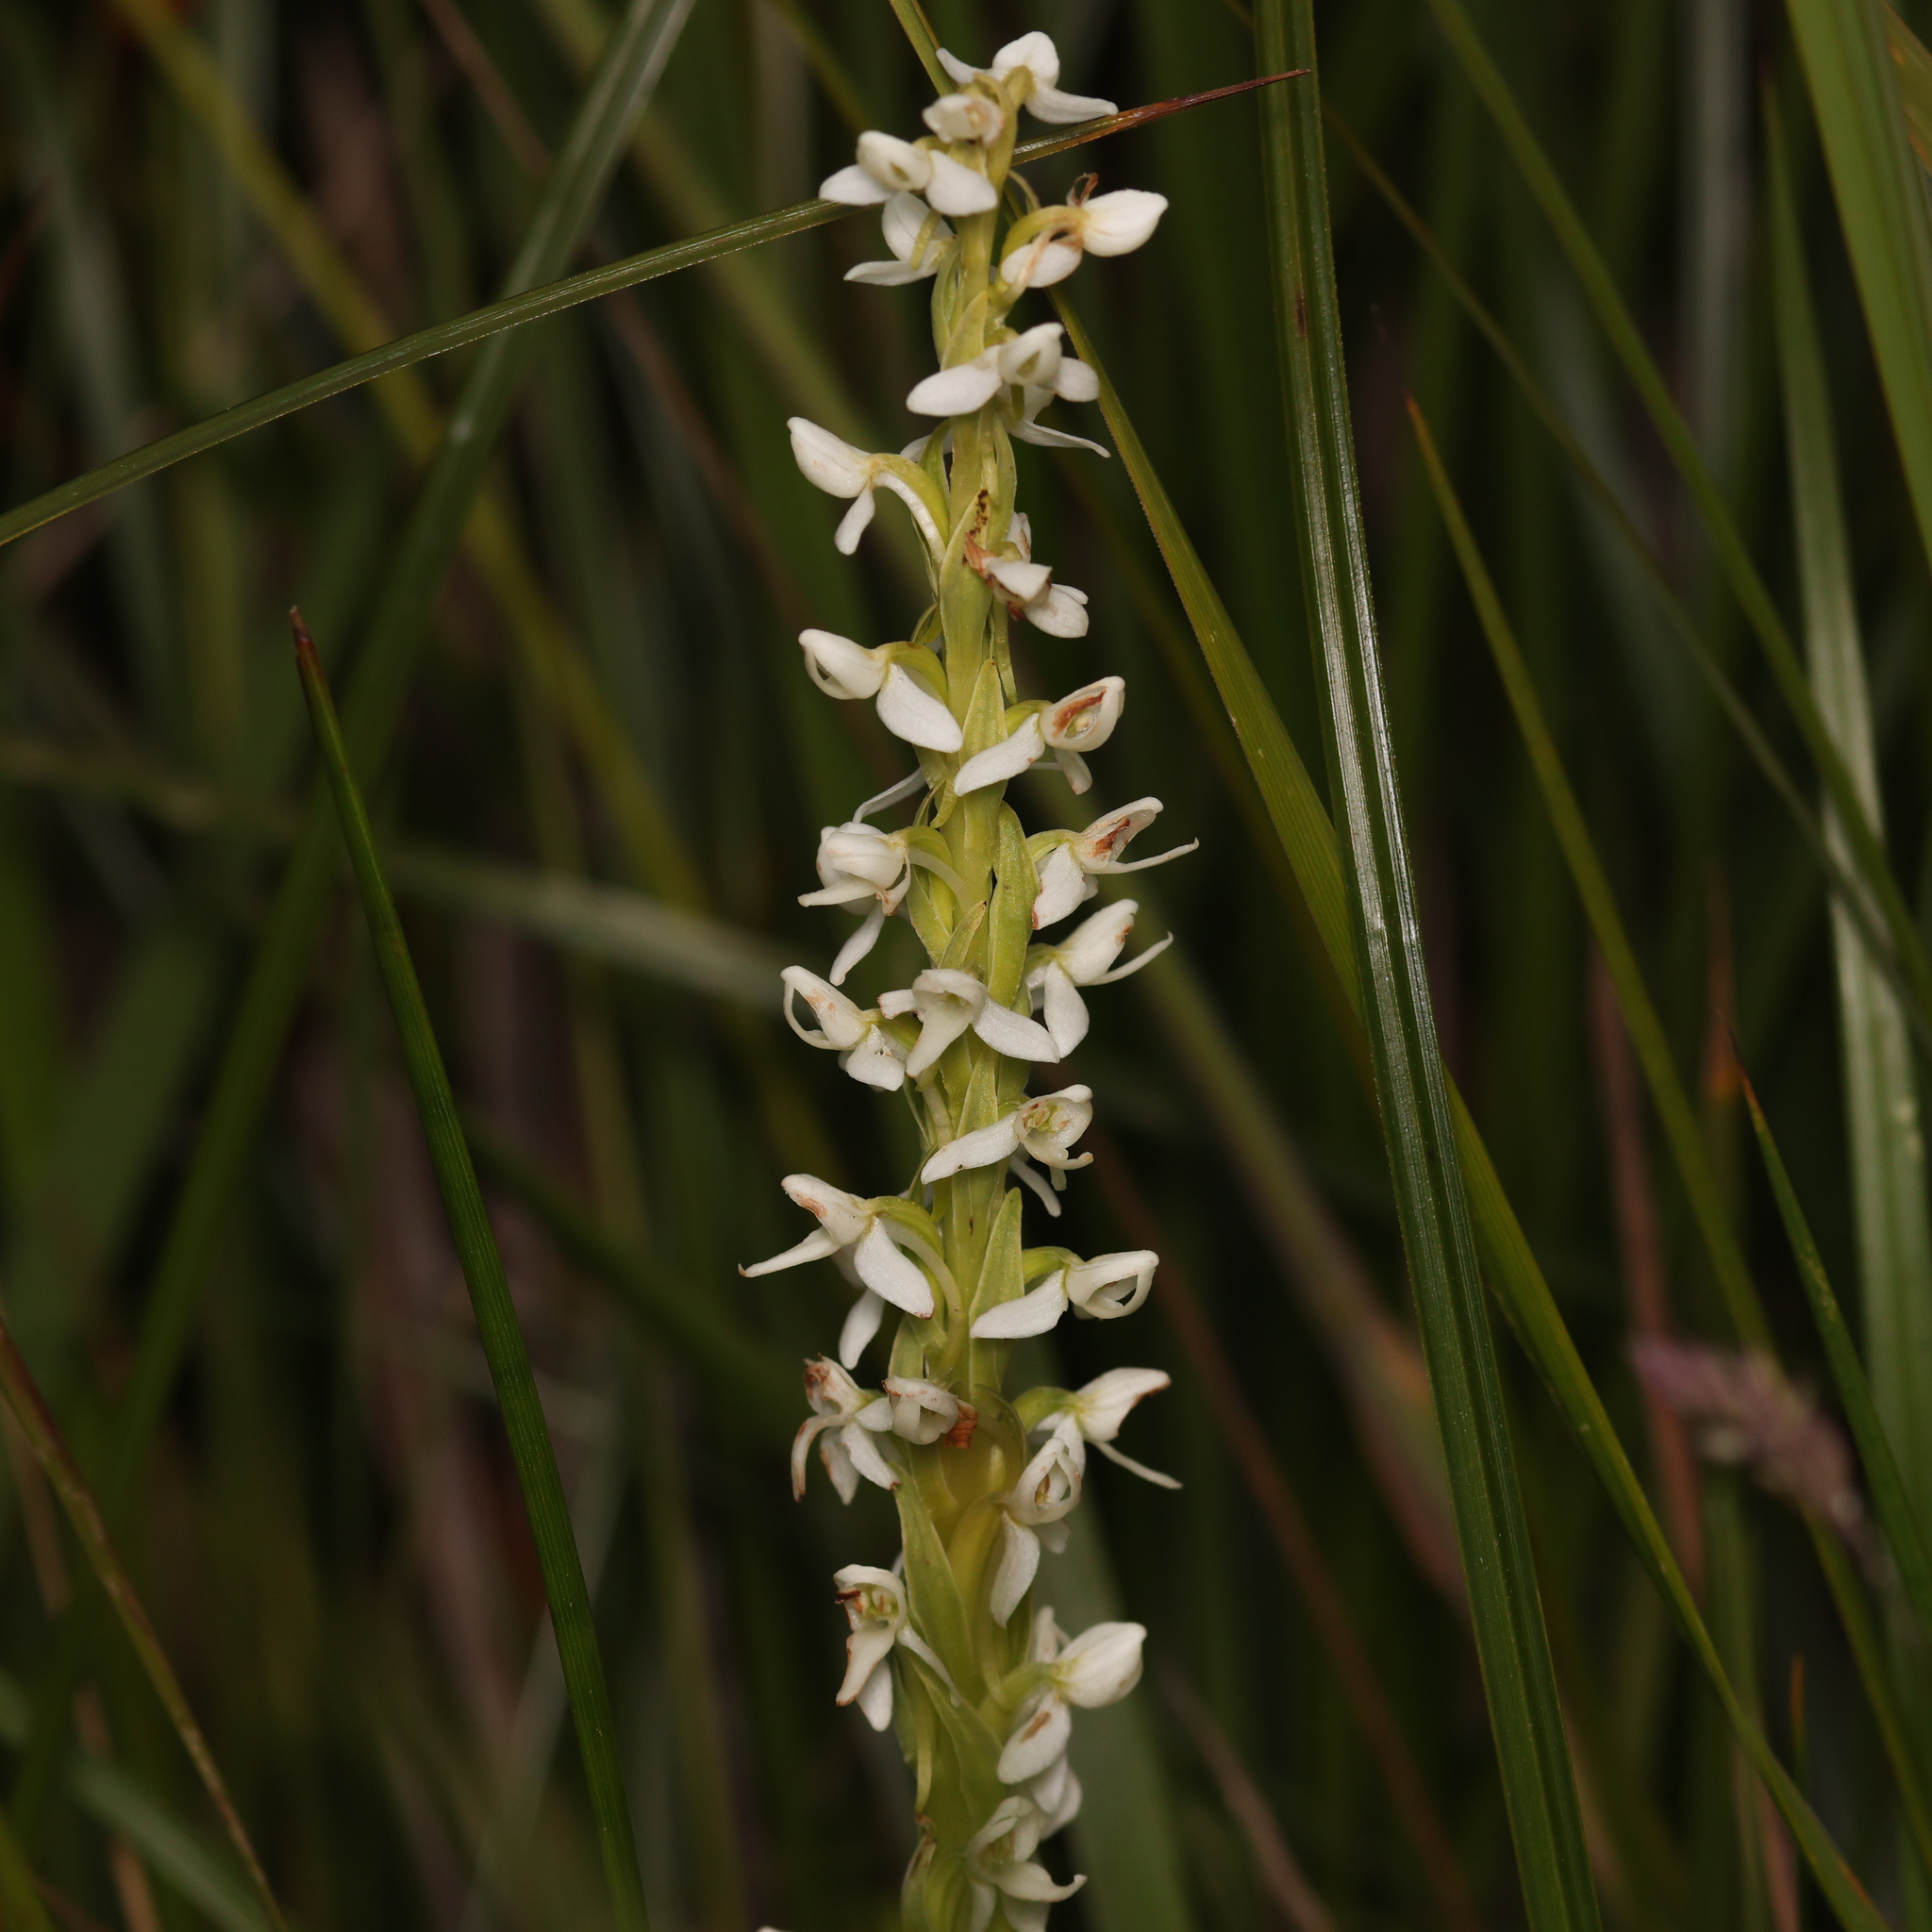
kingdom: Plantae
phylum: Tracheophyta
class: Liliopsida
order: Asparagales
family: Orchidaceae
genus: Platanthera
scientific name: Platanthera dilatata
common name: Bog candles
